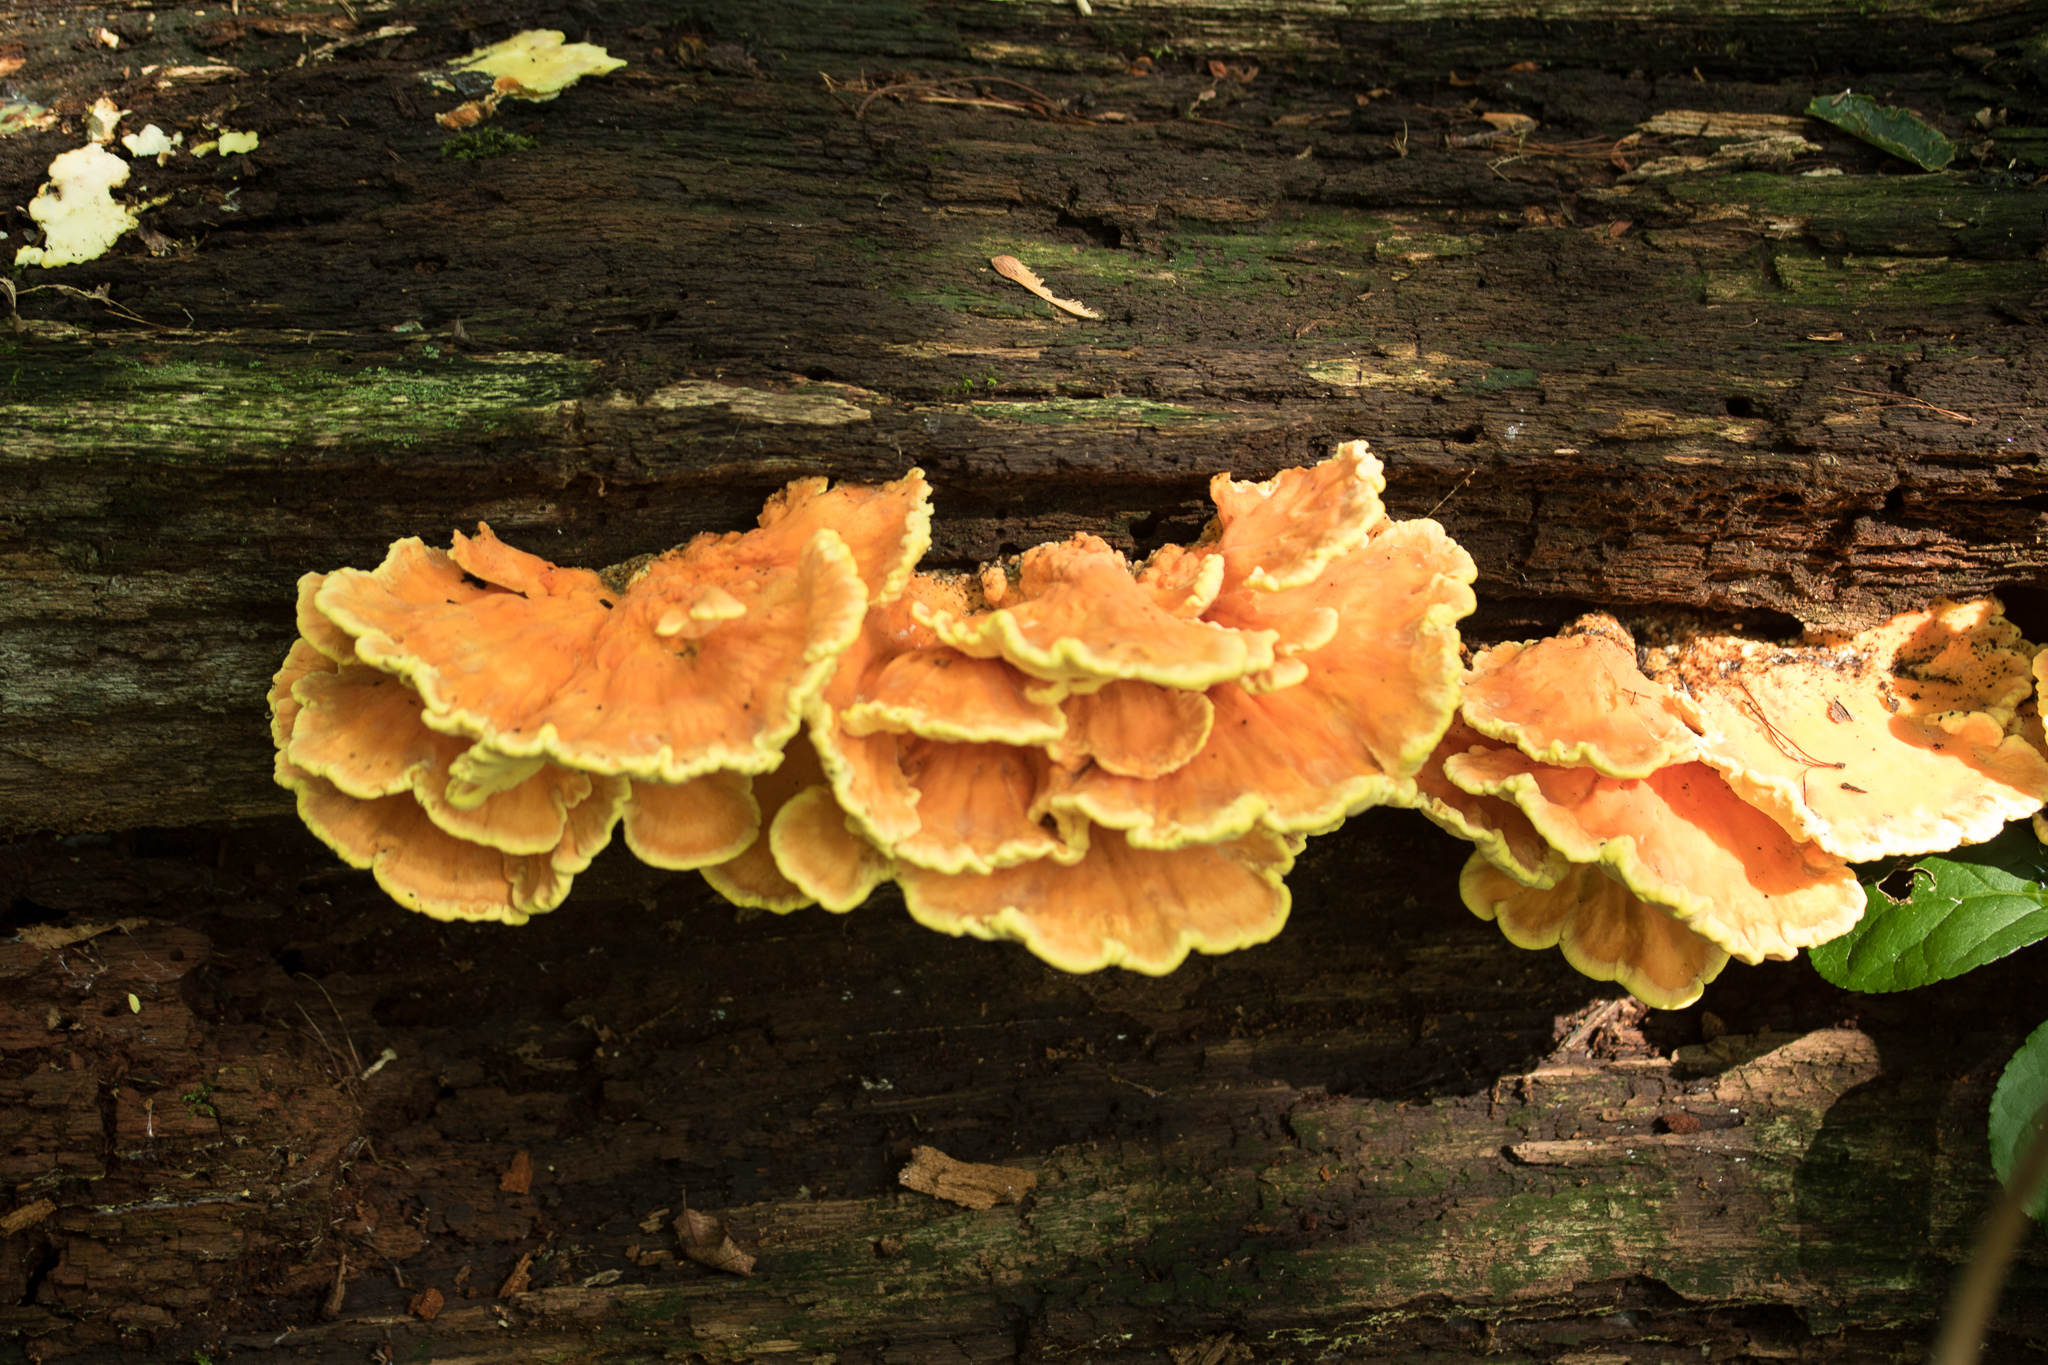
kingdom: Fungi
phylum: Basidiomycota
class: Agaricomycetes
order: Polyporales
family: Laetiporaceae
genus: Laetiporus
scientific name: Laetiporus sulphureus
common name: Chicken of the woods
